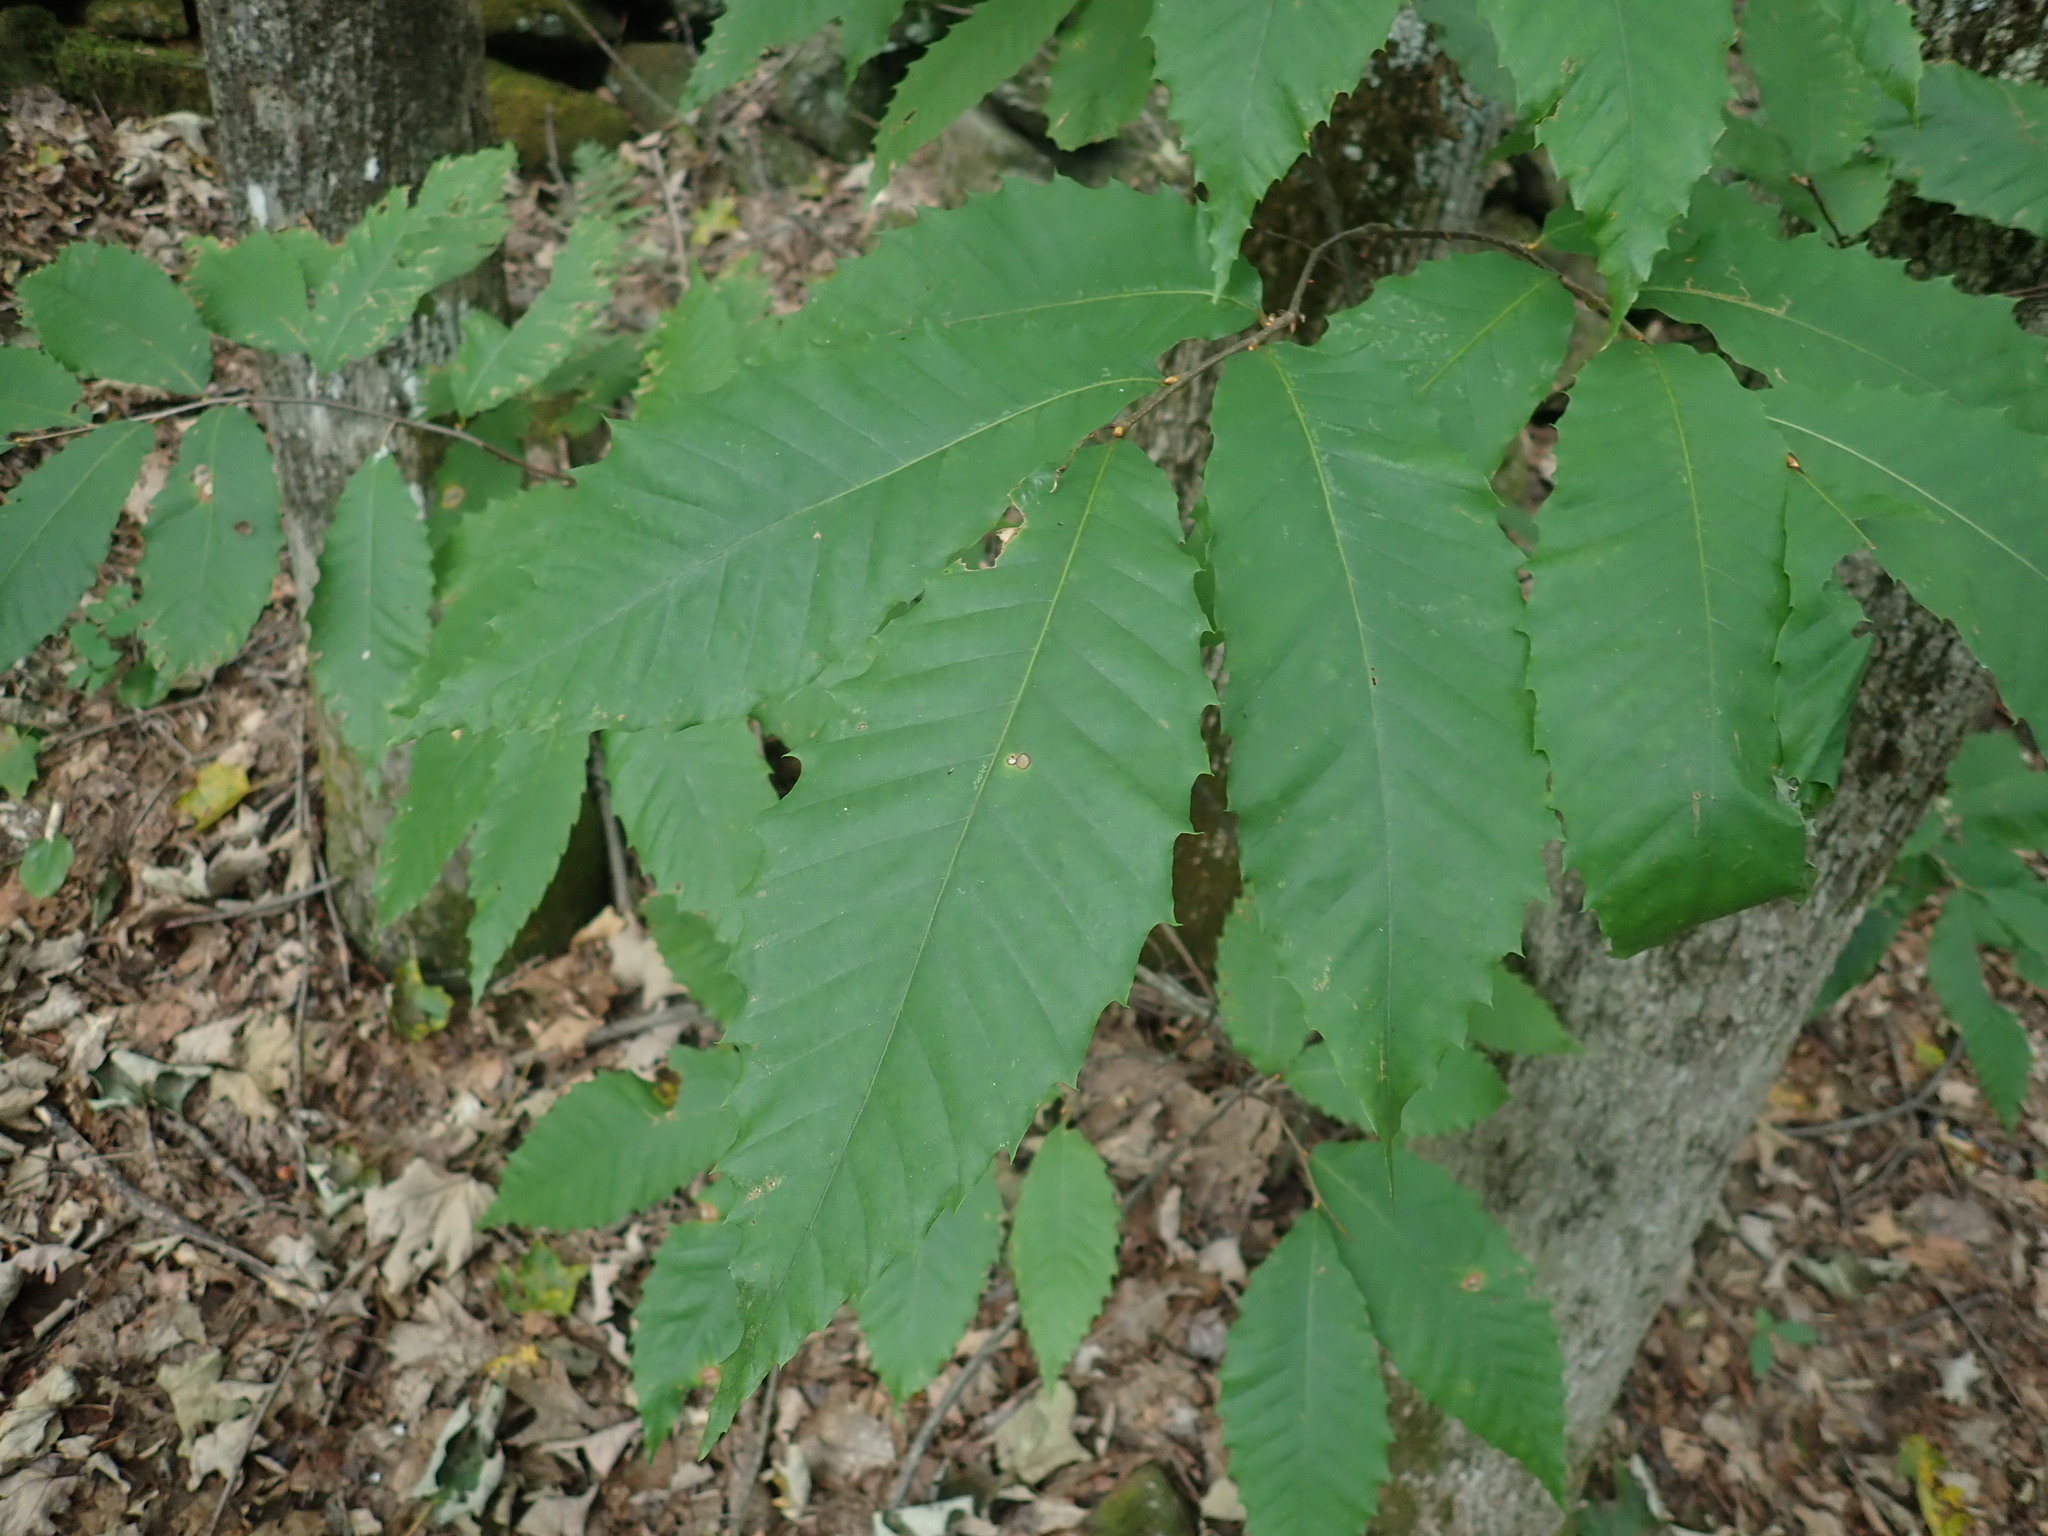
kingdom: Plantae
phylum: Tracheophyta
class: Magnoliopsida
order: Fagales
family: Fagaceae
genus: Castanea
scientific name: Castanea dentata
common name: American chestnut
